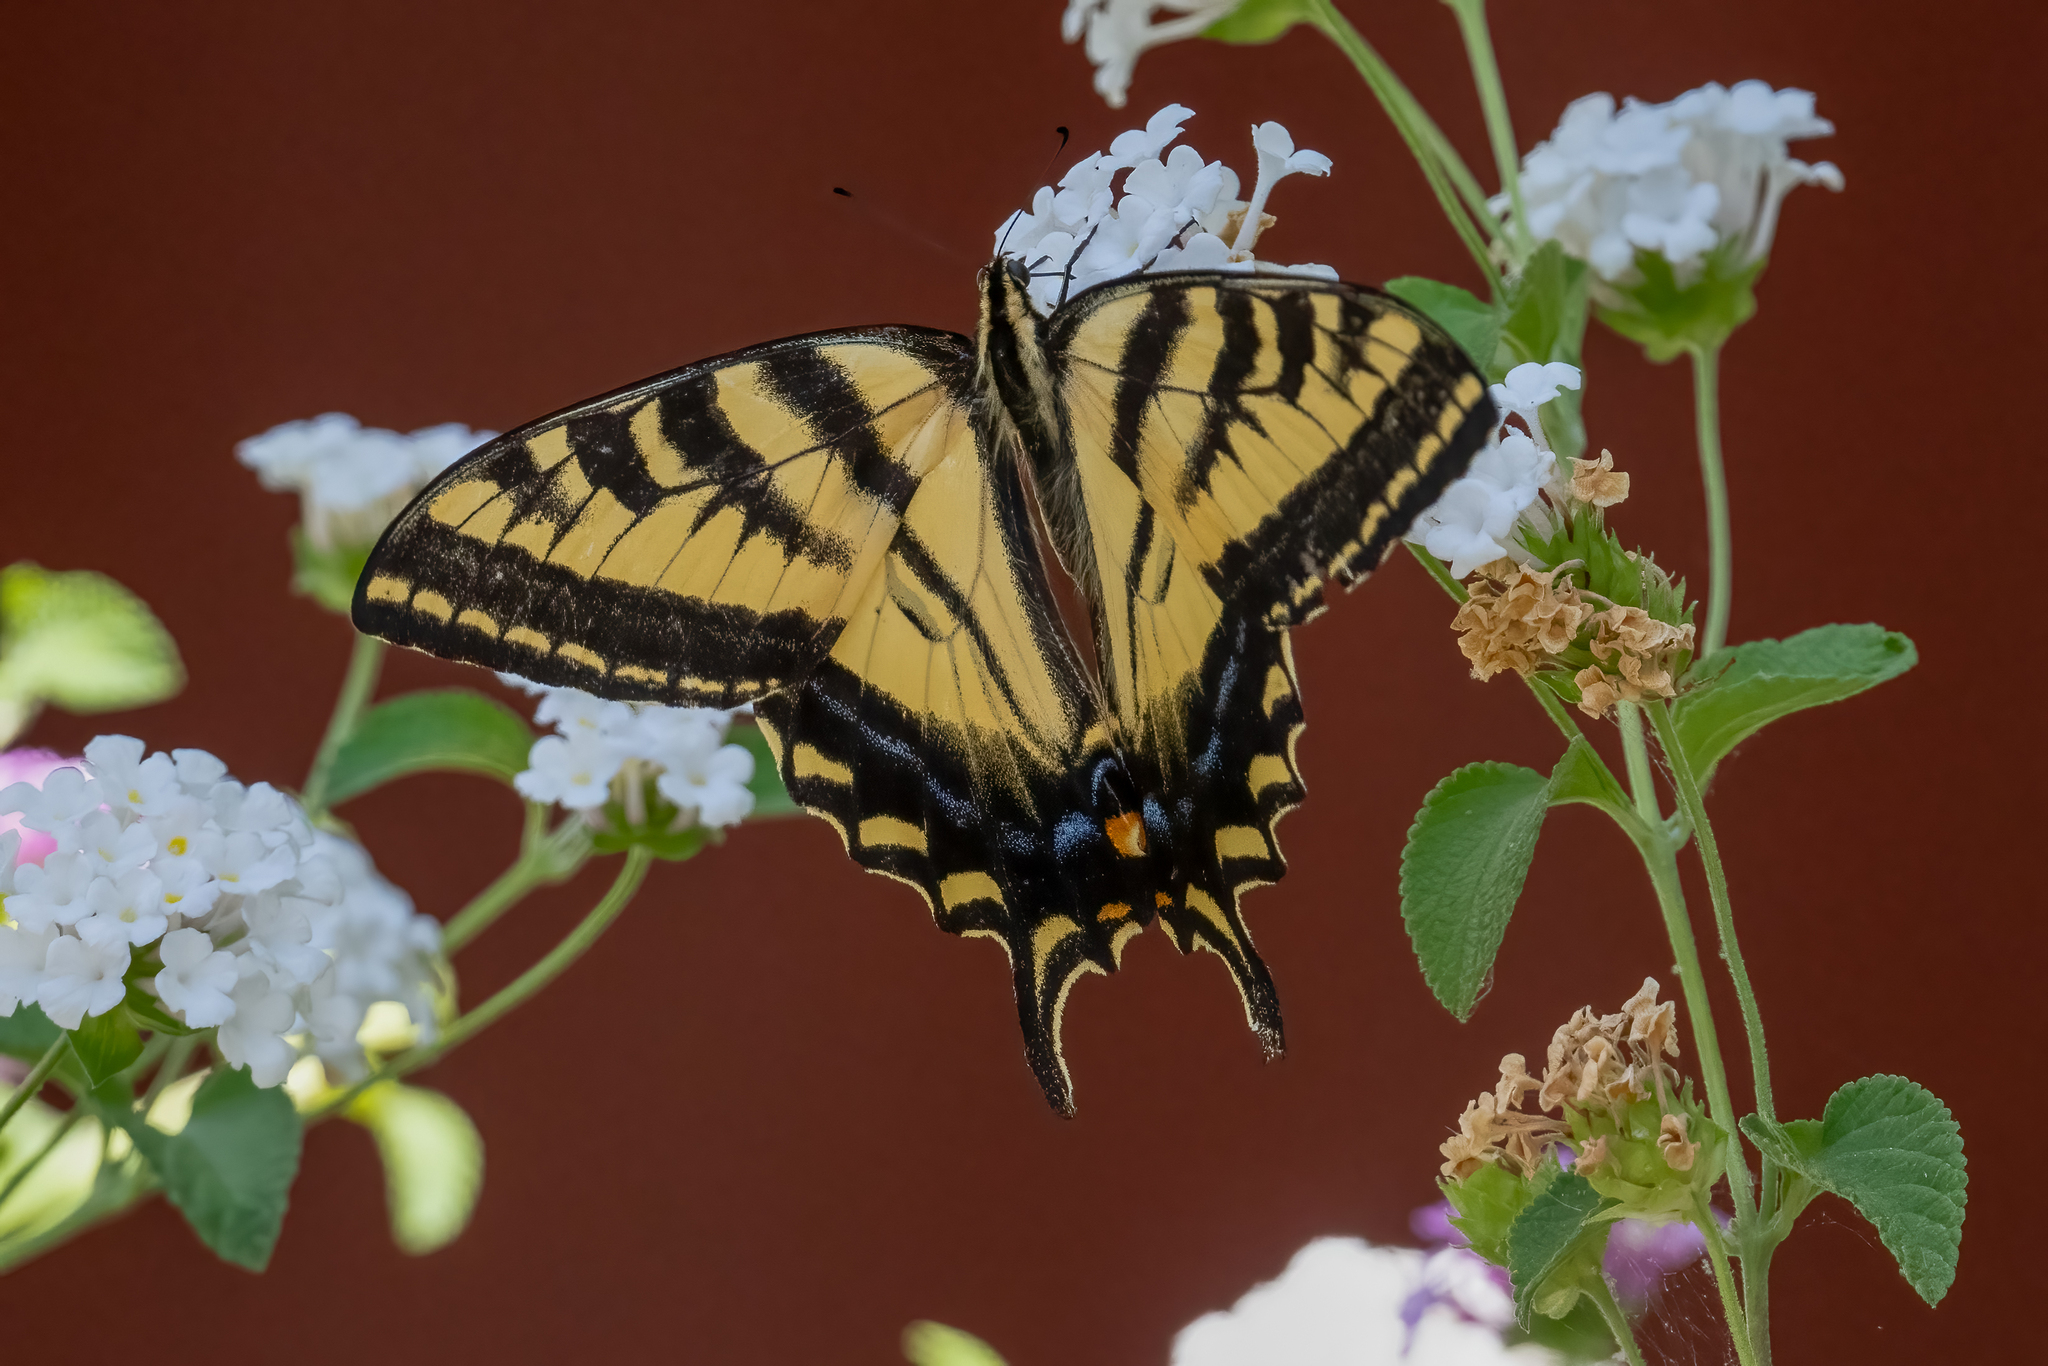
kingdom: Animalia
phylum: Arthropoda
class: Insecta
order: Lepidoptera
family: Papilionidae
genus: Papilio
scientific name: Papilio rutulus
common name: Western tiger swallowtail
